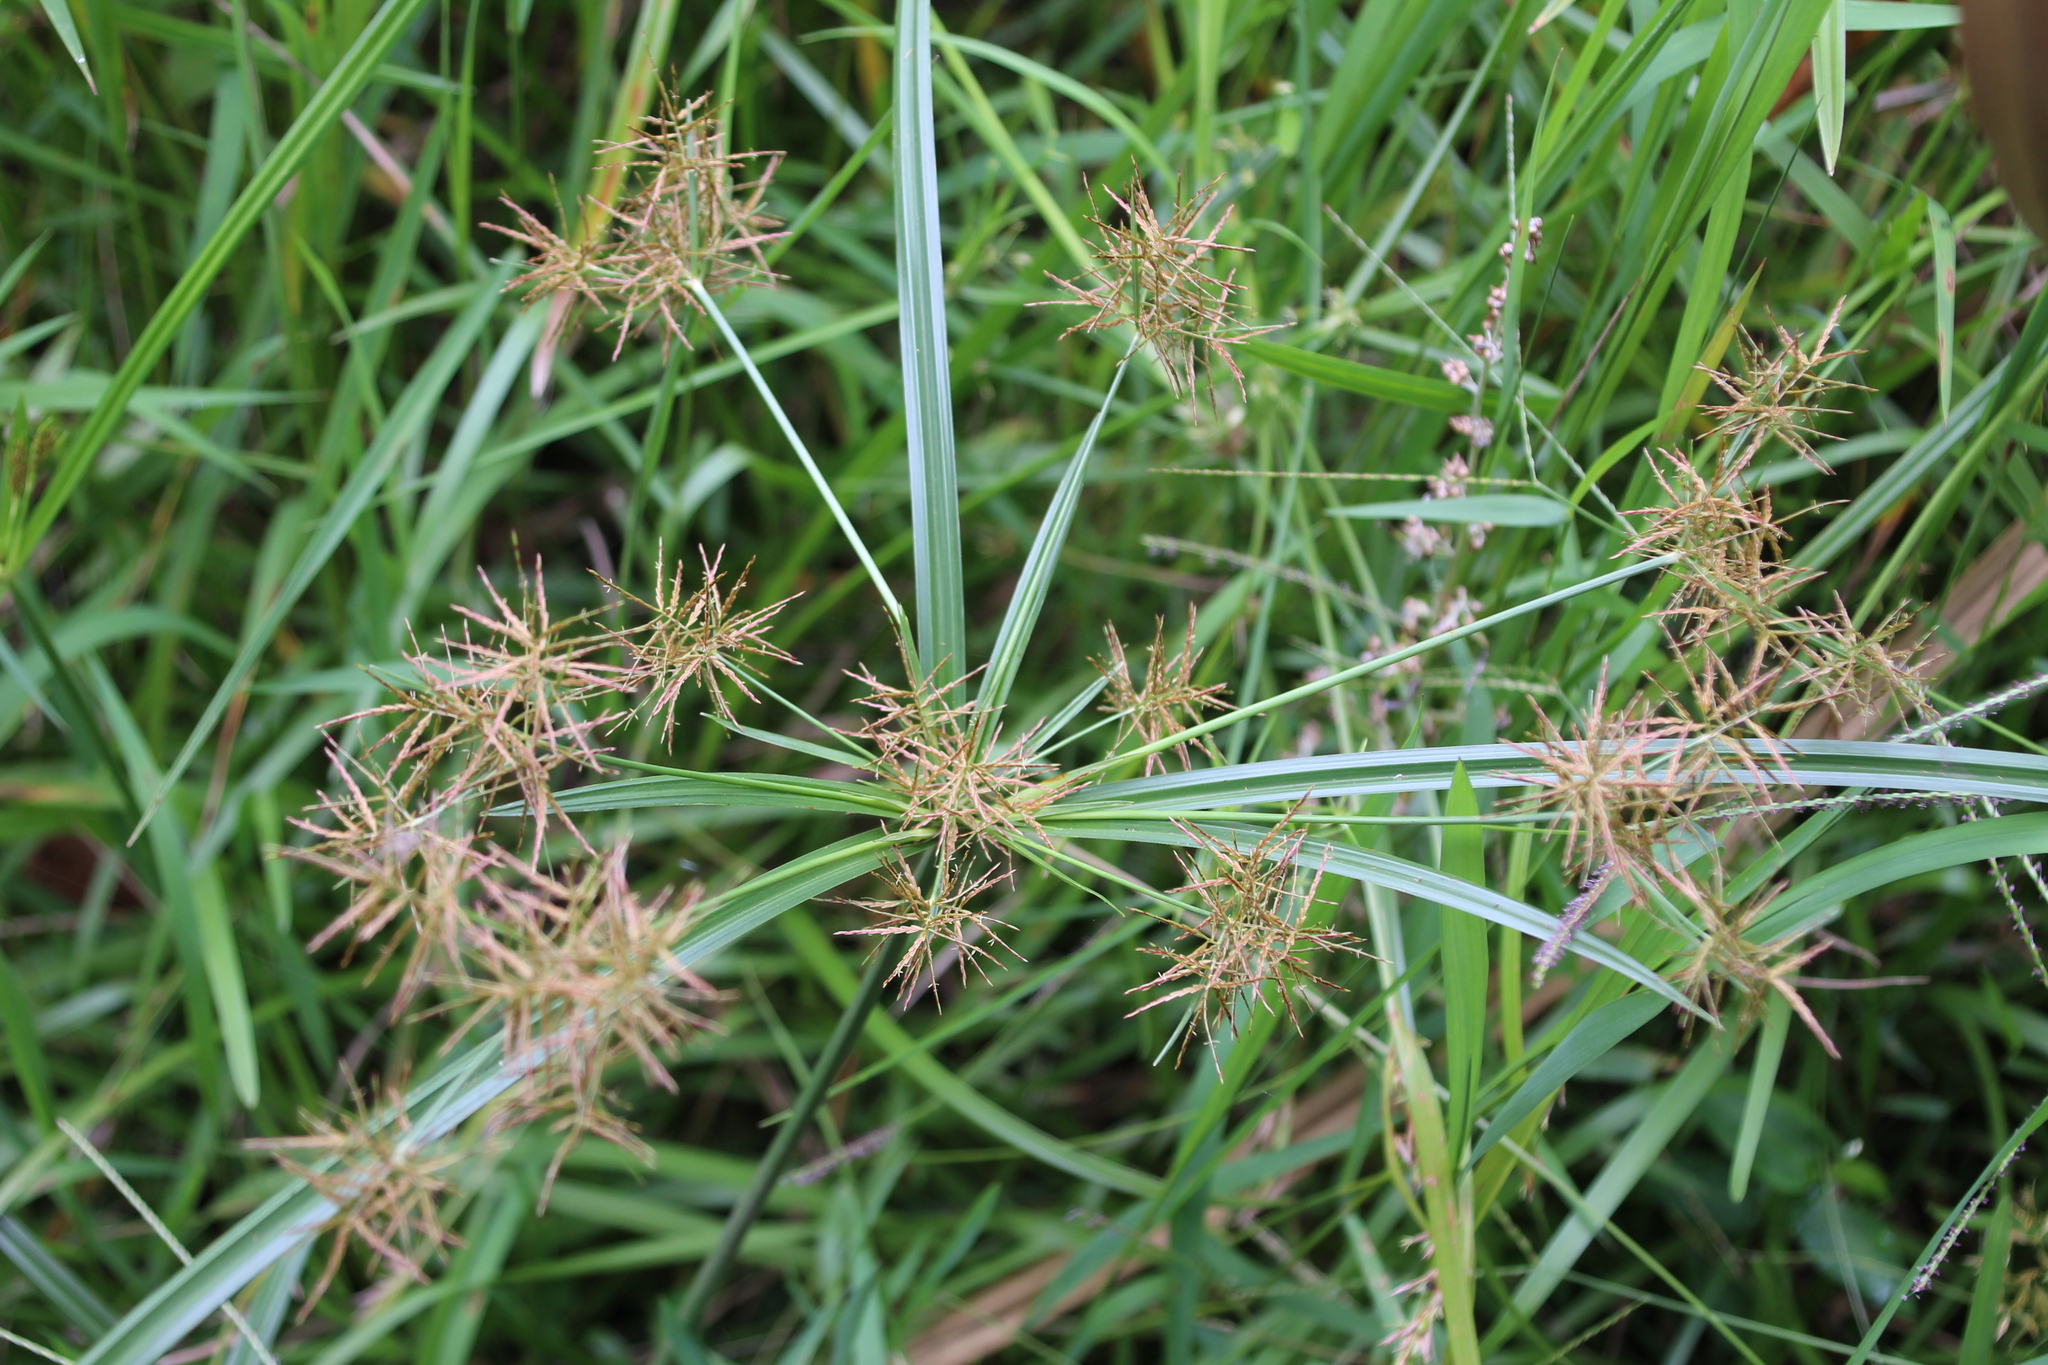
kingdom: Plantae
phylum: Tracheophyta
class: Liliopsida
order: Poales
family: Cyperaceae
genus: Cyperus
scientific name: Cyperus distans
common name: Slender cyperus
